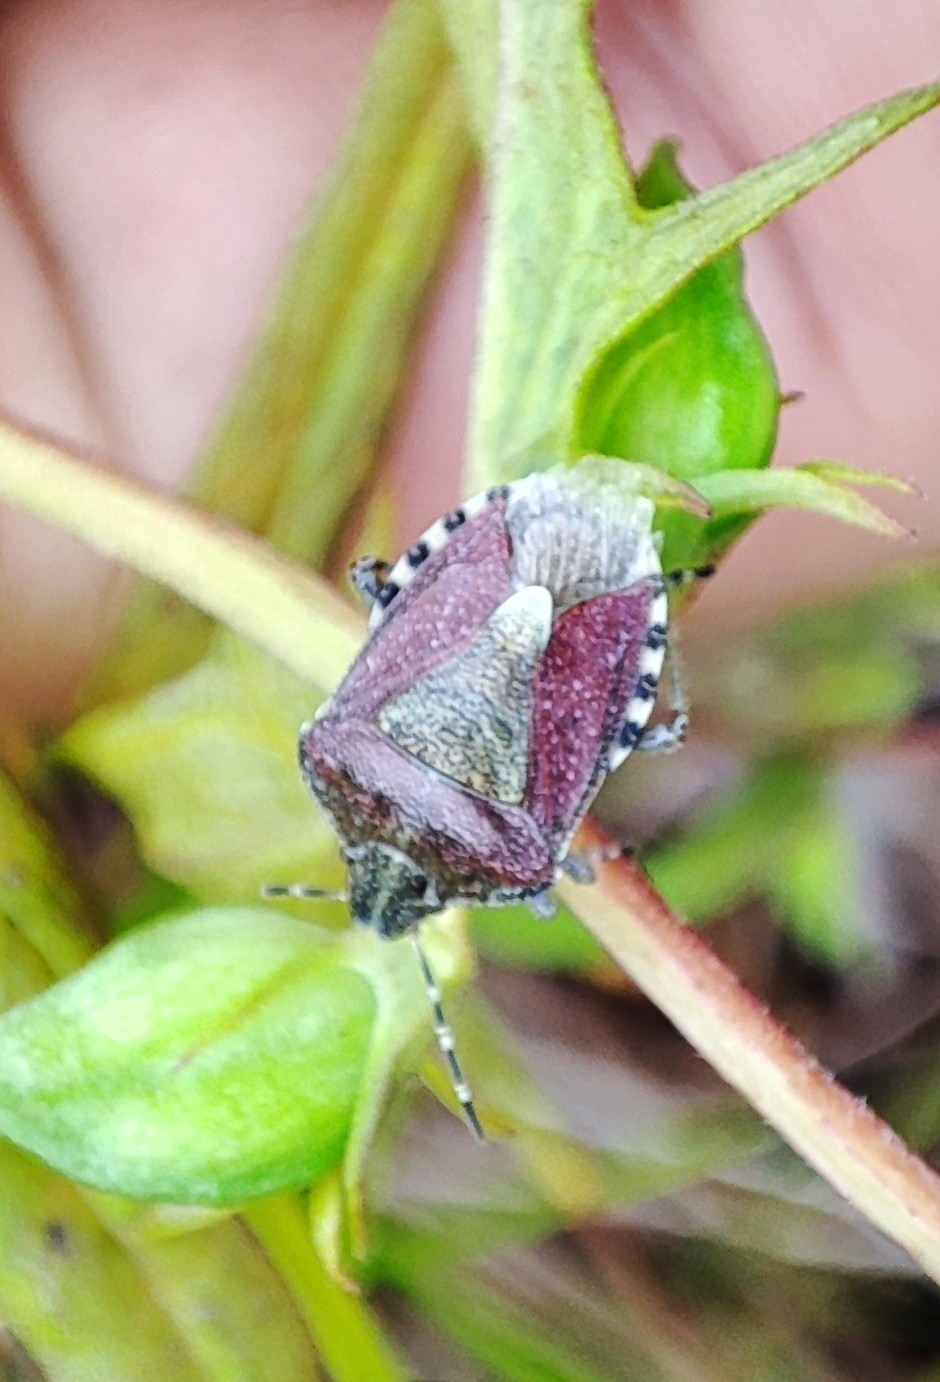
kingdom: Animalia
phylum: Arthropoda
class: Insecta
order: Hemiptera
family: Pentatomidae
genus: Dolycoris
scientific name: Dolycoris baccarum
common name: Sloe bug
